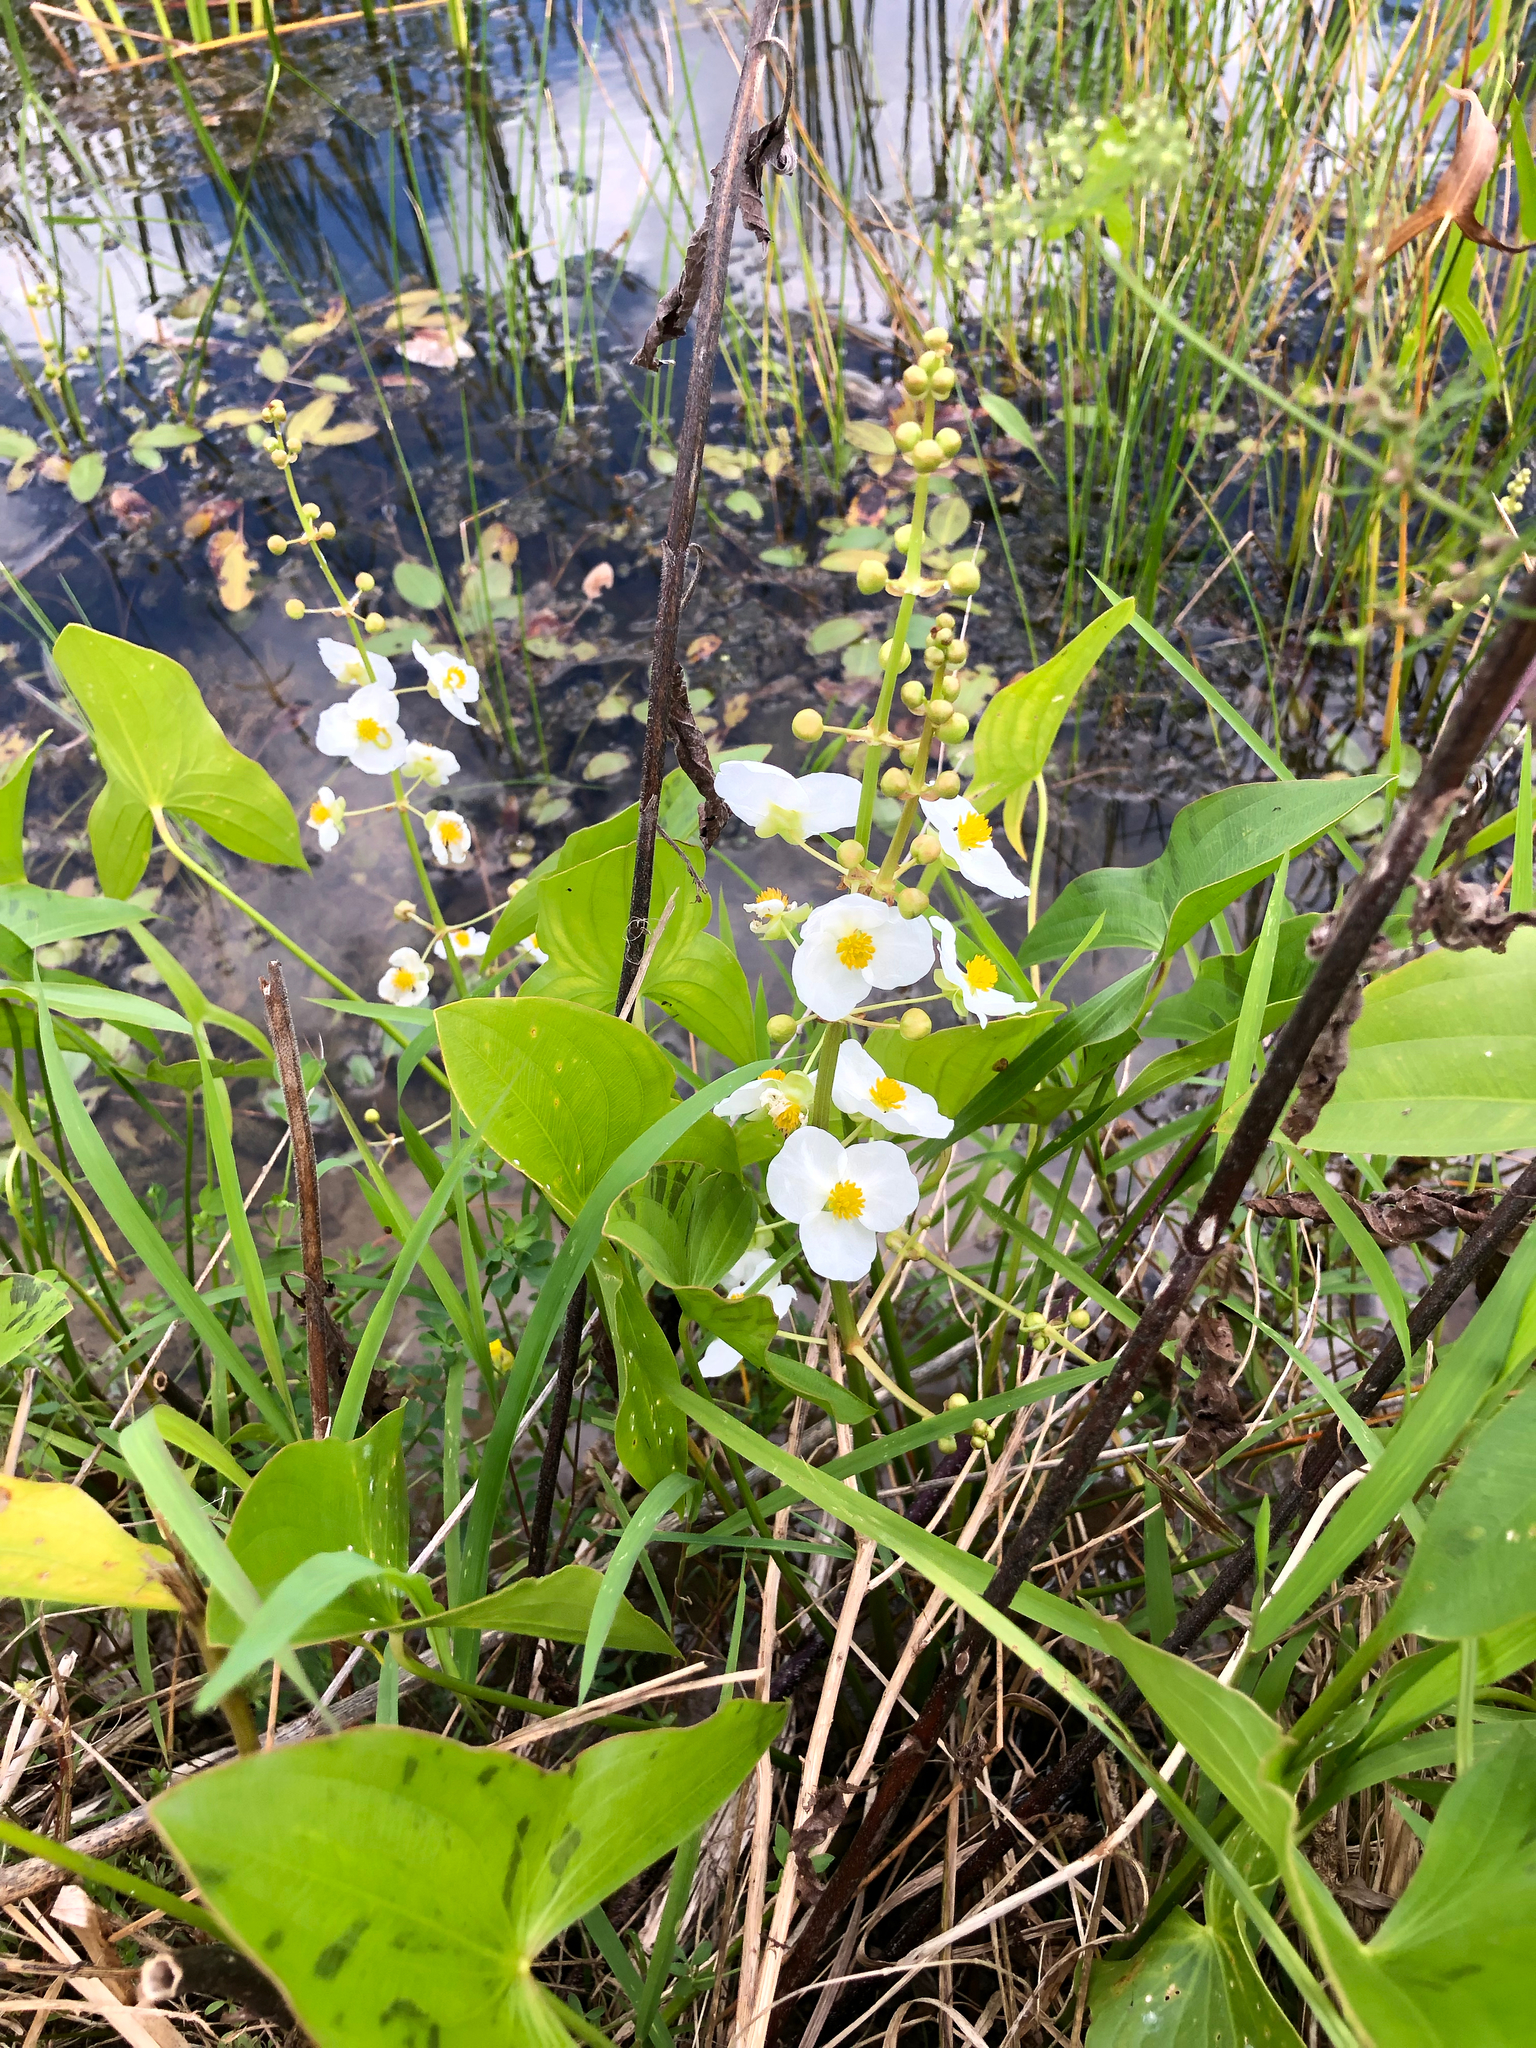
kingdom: Plantae
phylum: Tracheophyta
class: Liliopsida
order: Alismatales
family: Alismataceae
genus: Sagittaria
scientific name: Sagittaria latifolia
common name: Duck-potato
